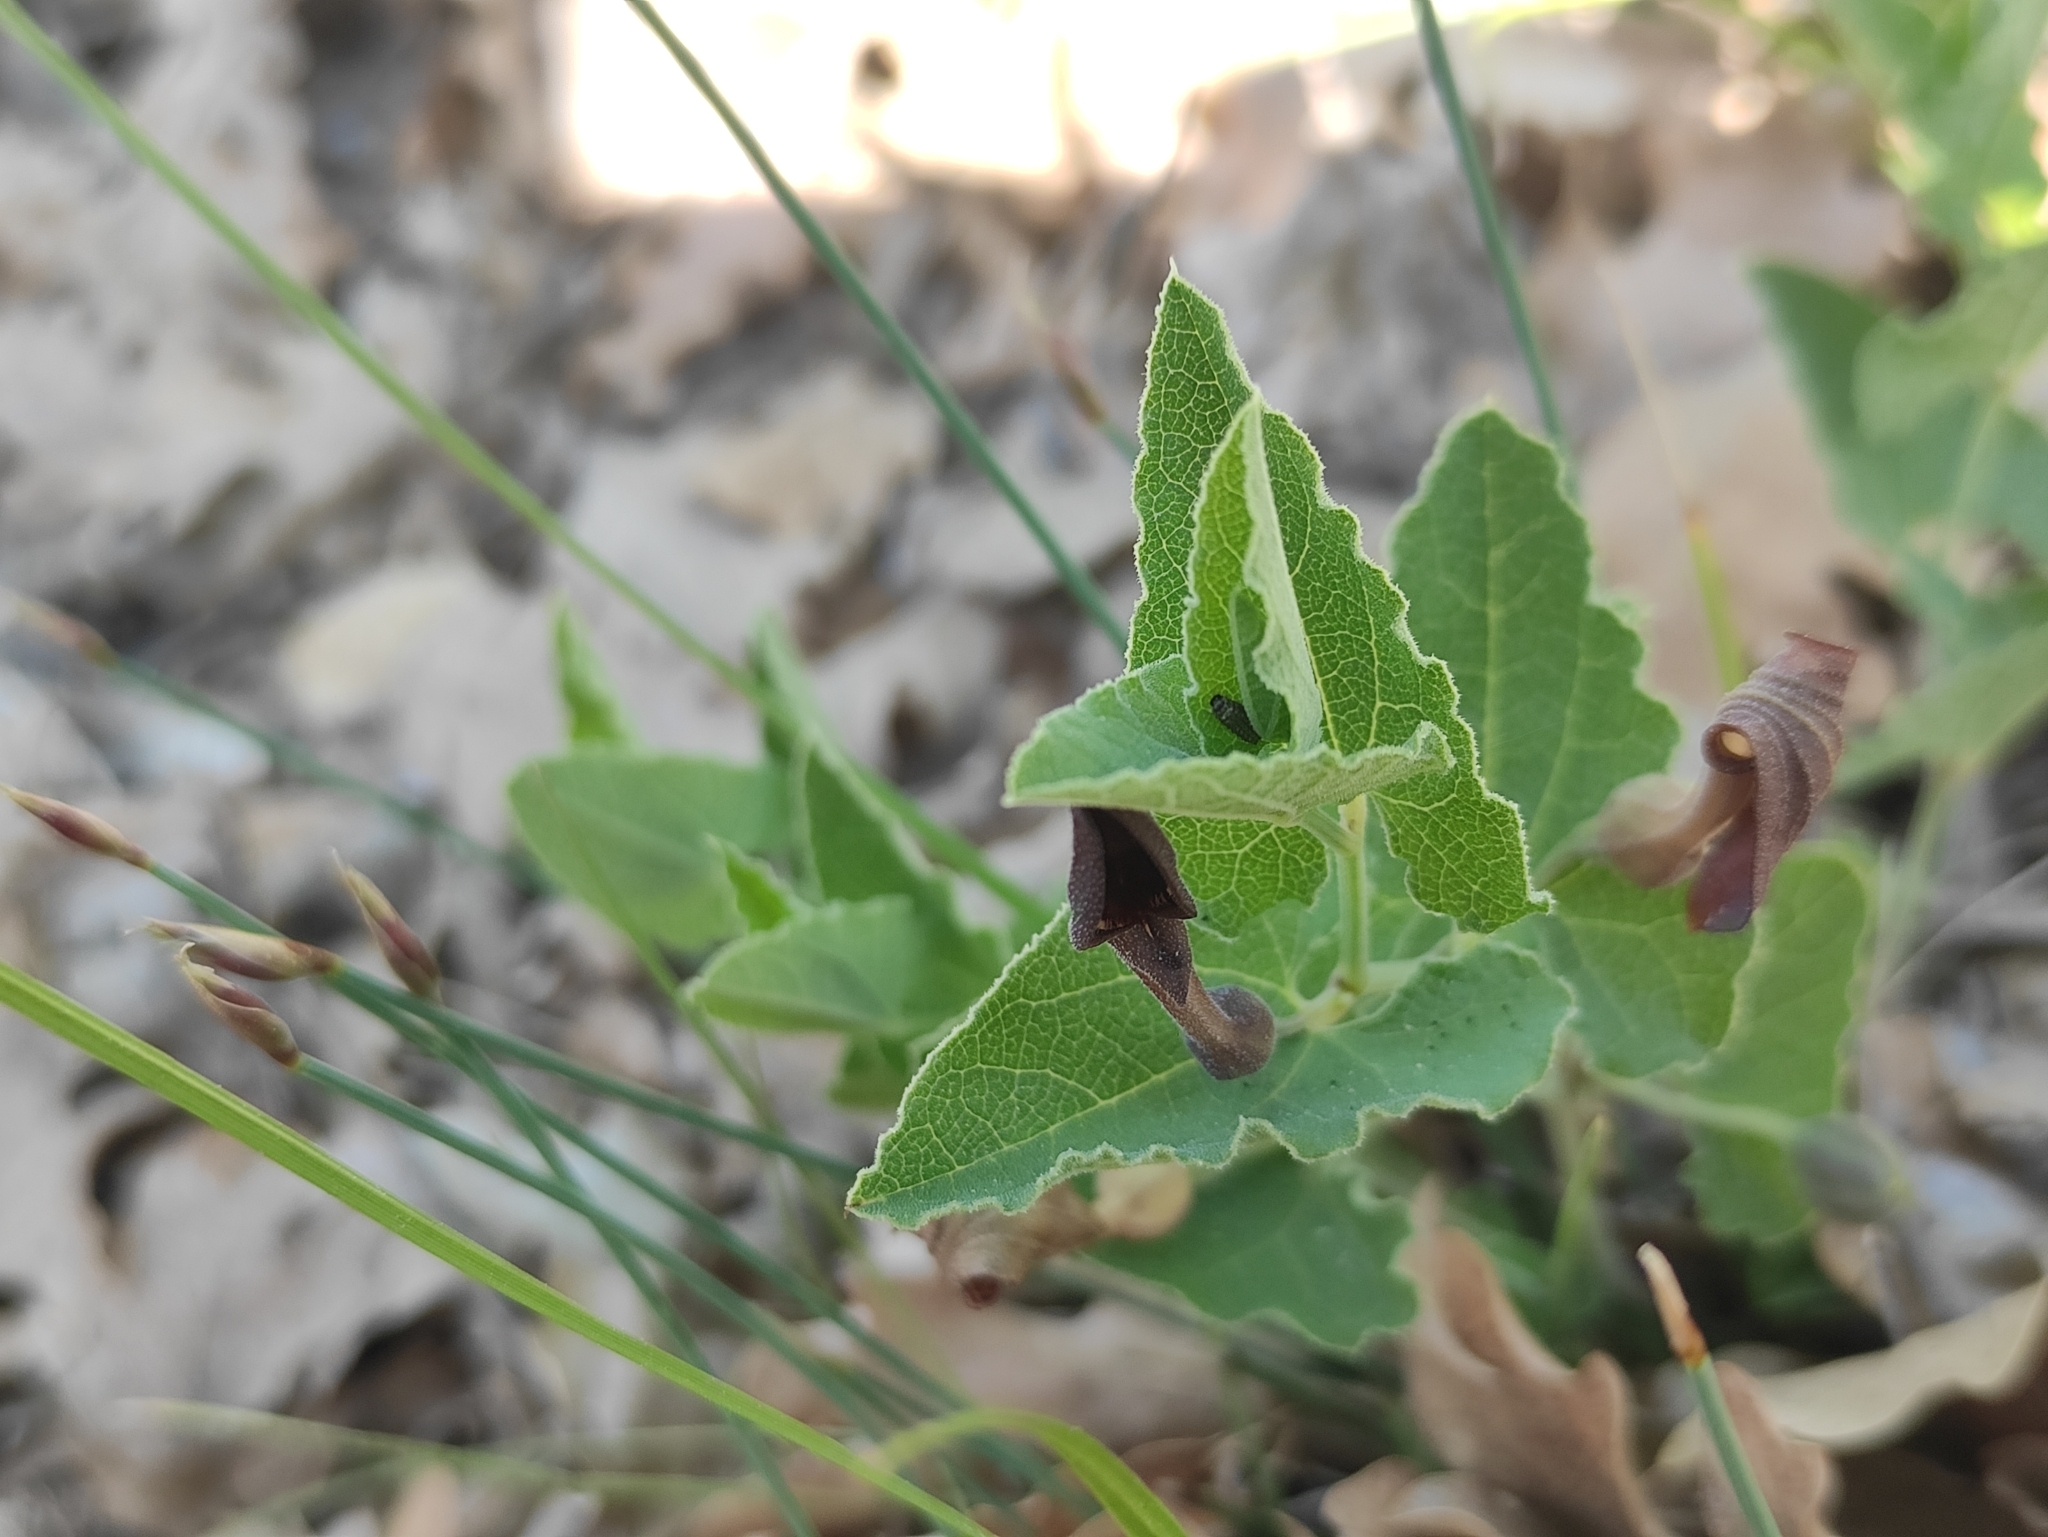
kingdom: Plantae
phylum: Tracheophyta
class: Magnoliopsida
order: Piperales
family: Aristolochiaceae
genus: Aristolochia
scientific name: Aristolochia pistolochia
